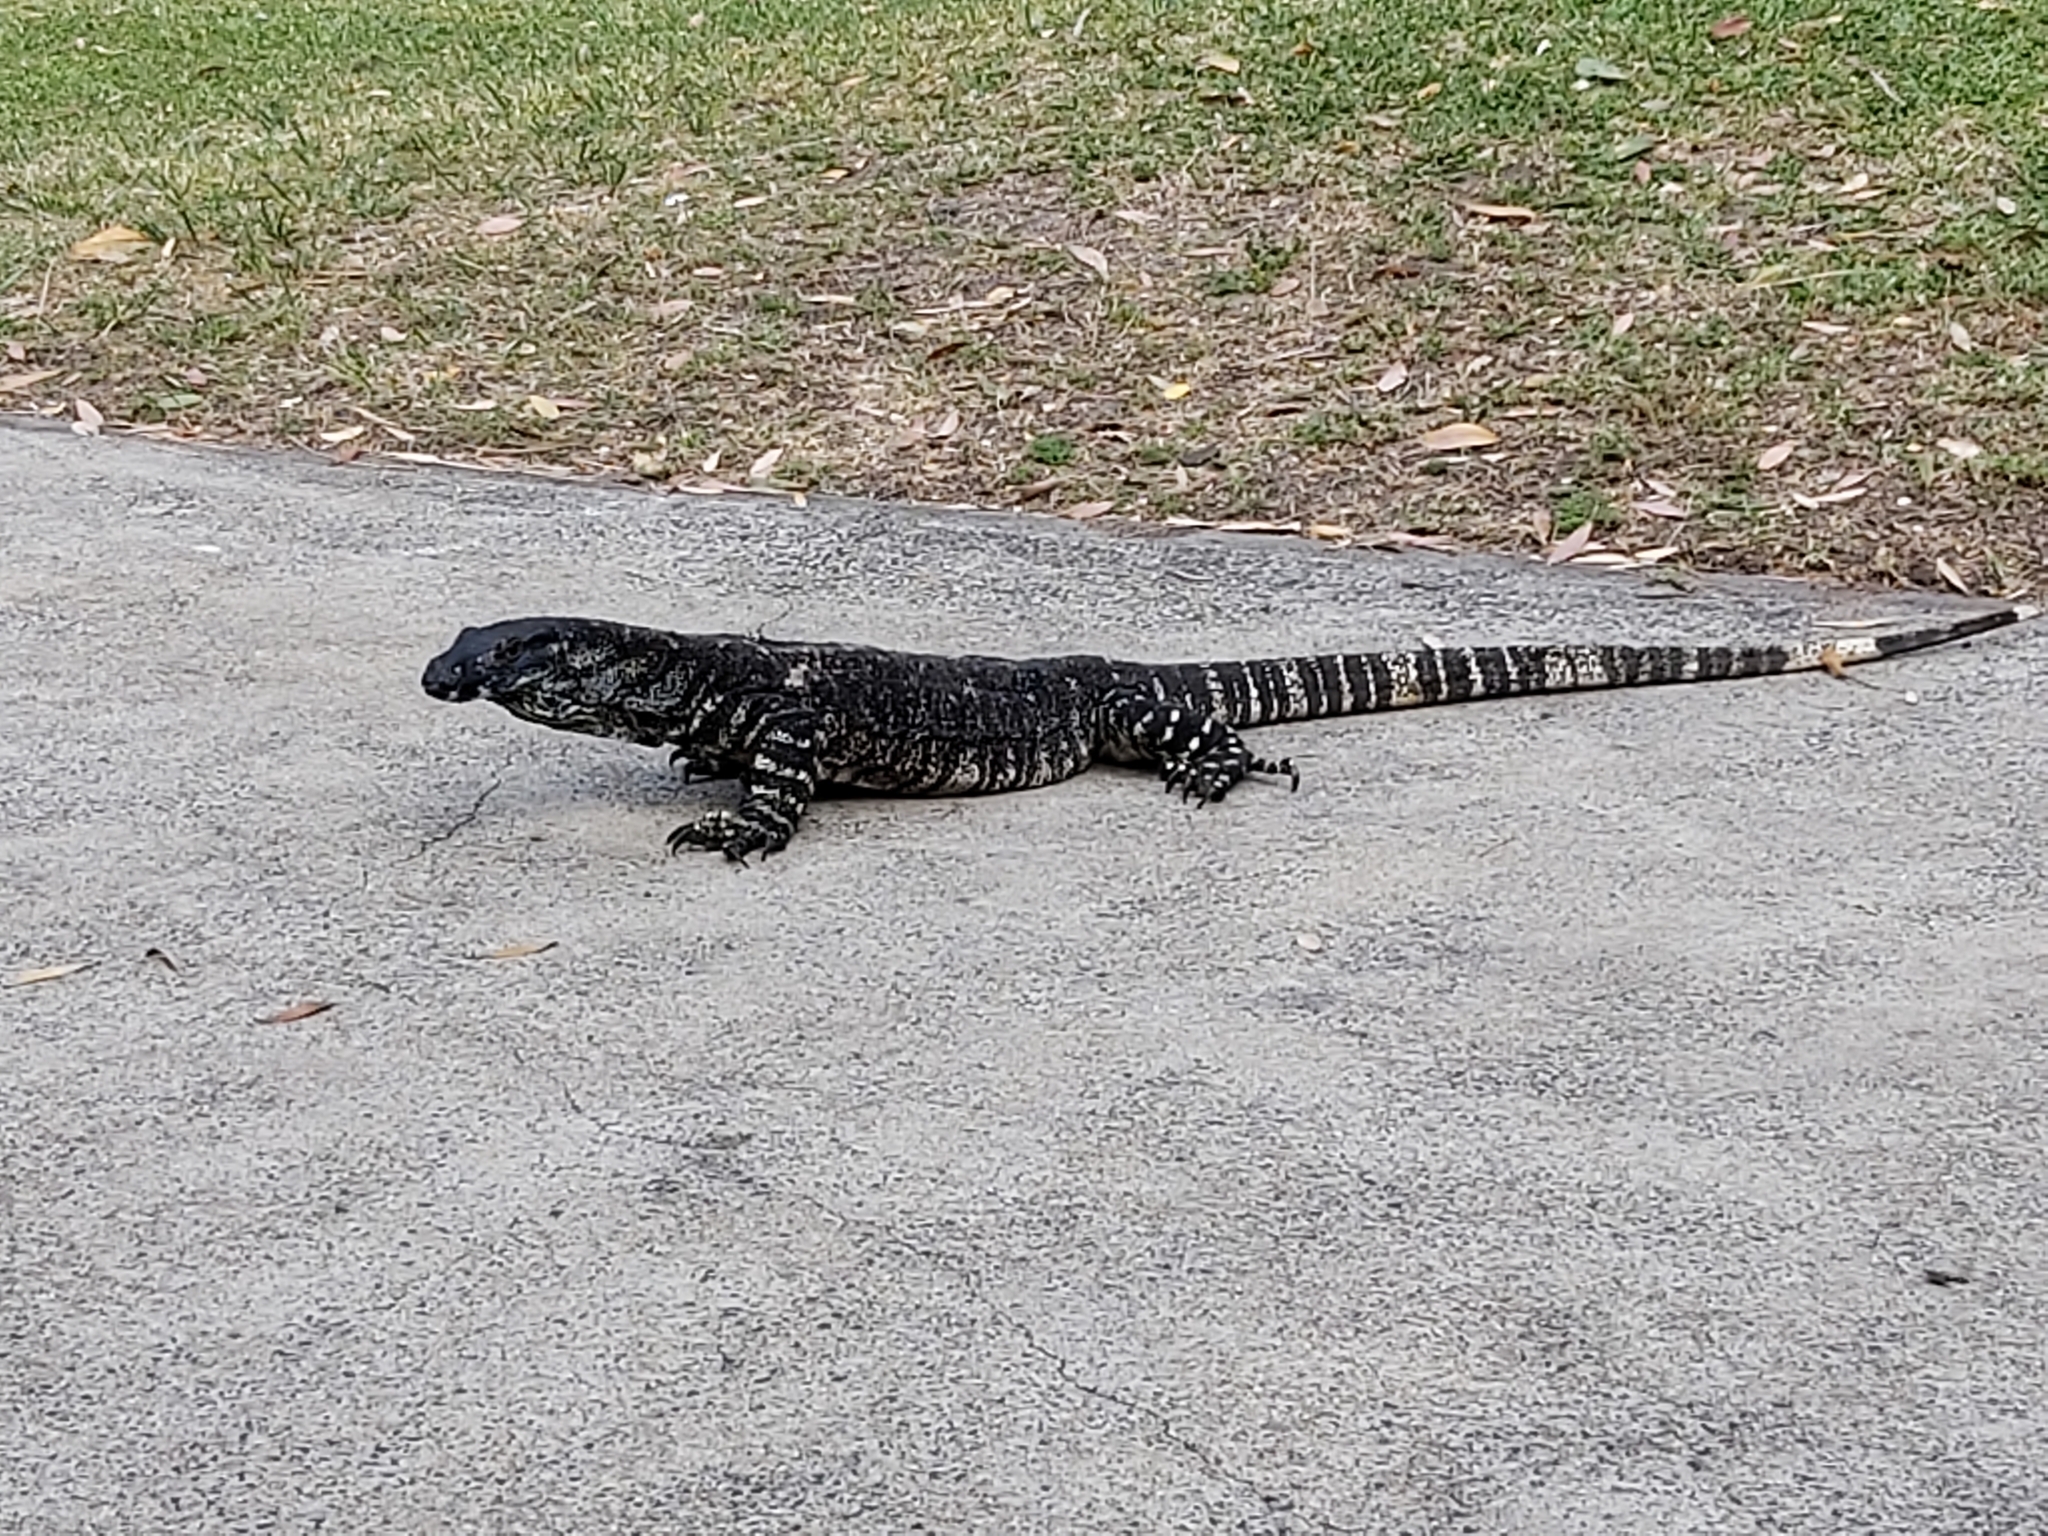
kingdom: Animalia
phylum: Chordata
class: Squamata
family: Varanidae
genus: Varanus
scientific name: Varanus varius
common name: Lace monitor
